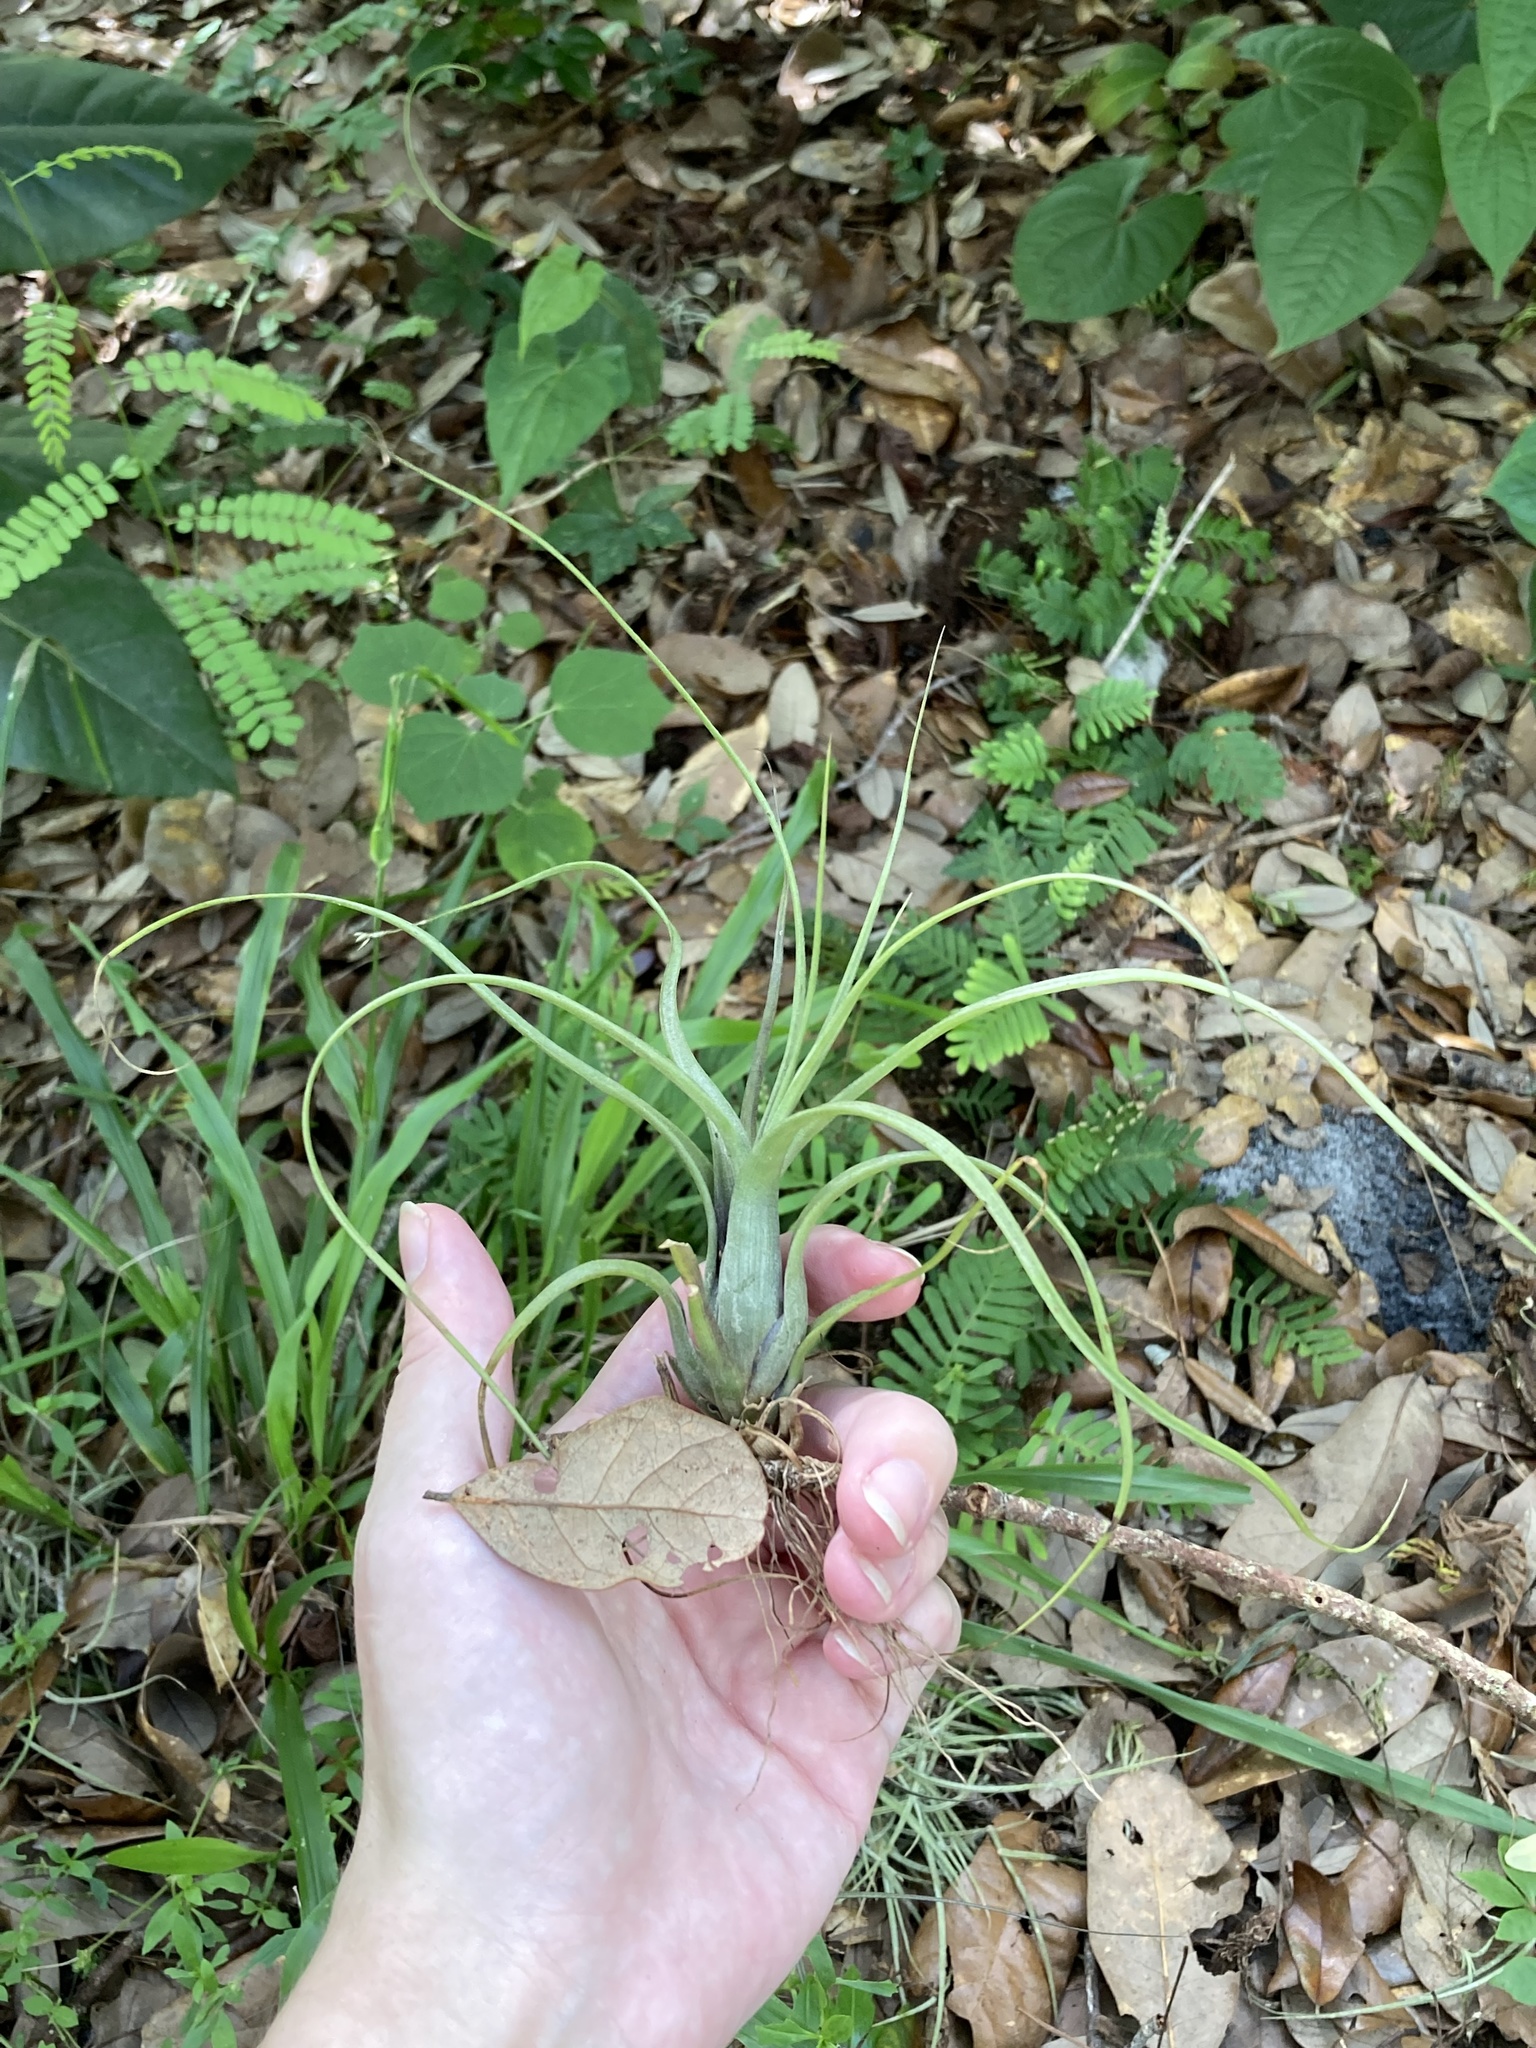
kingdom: Plantae
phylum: Tracheophyta
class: Liliopsida
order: Poales
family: Bromeliaceae
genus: Tillandsia
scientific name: Tillandsia balbisiana
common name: Northern needleleaf
